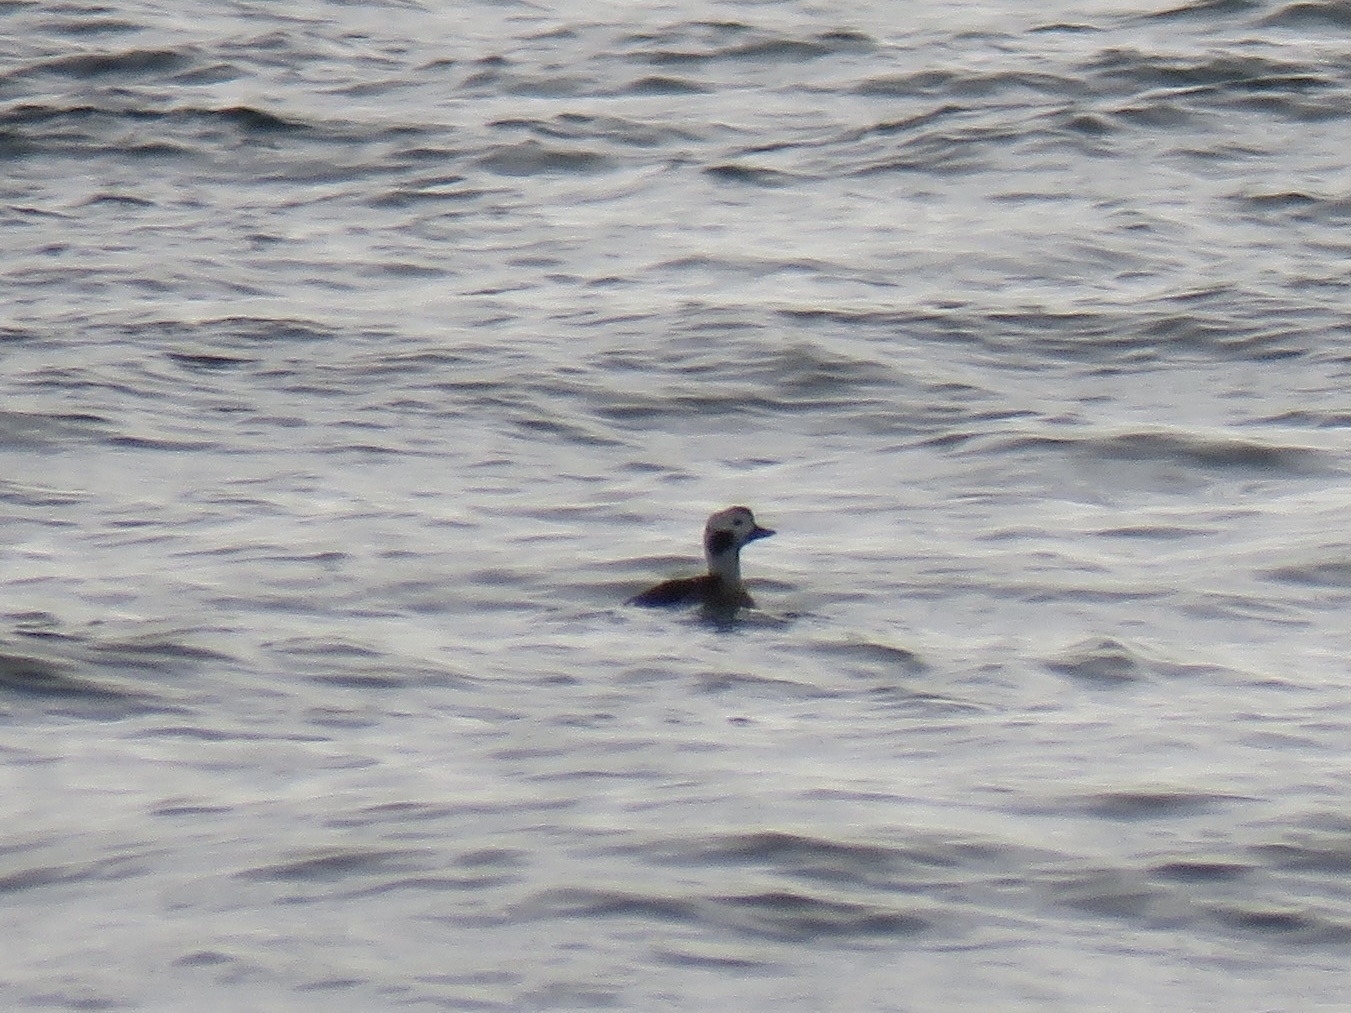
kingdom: Animalia
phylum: Chordata
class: Aves
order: Anseriformes
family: Anatidae
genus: Clangula
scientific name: Clangula hyemalis
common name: Long-tailed duck
